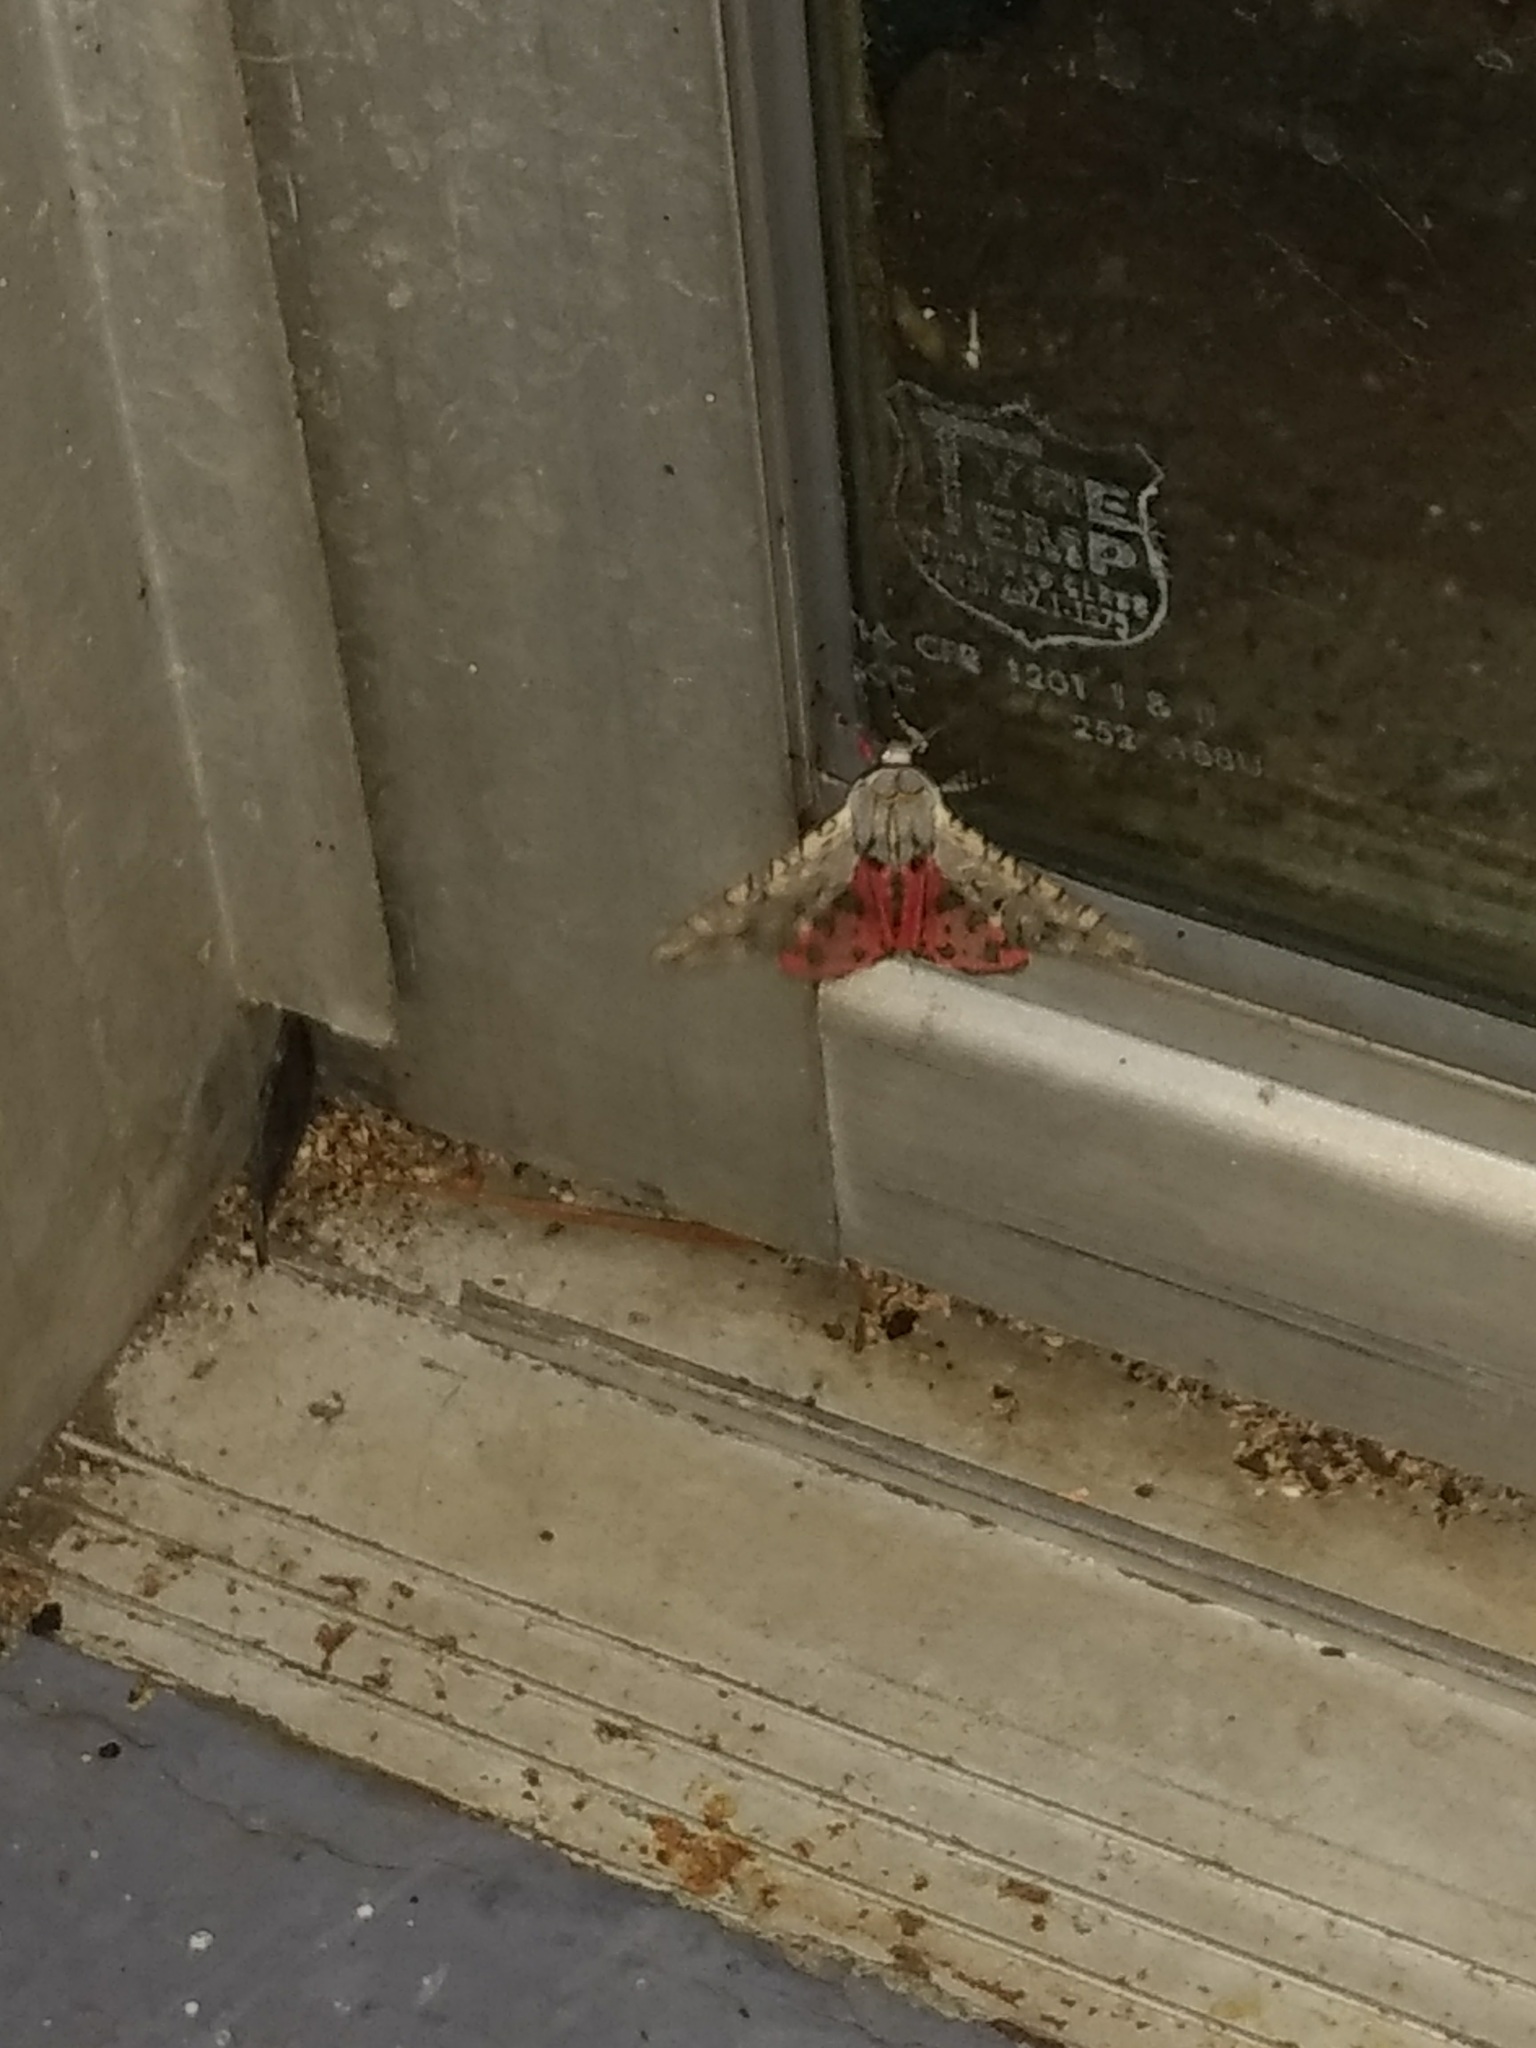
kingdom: Animalia
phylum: Arthropoda
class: Insecta
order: Lepidoptera
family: Erebidae
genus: Arachnis
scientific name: Arachnis picta
